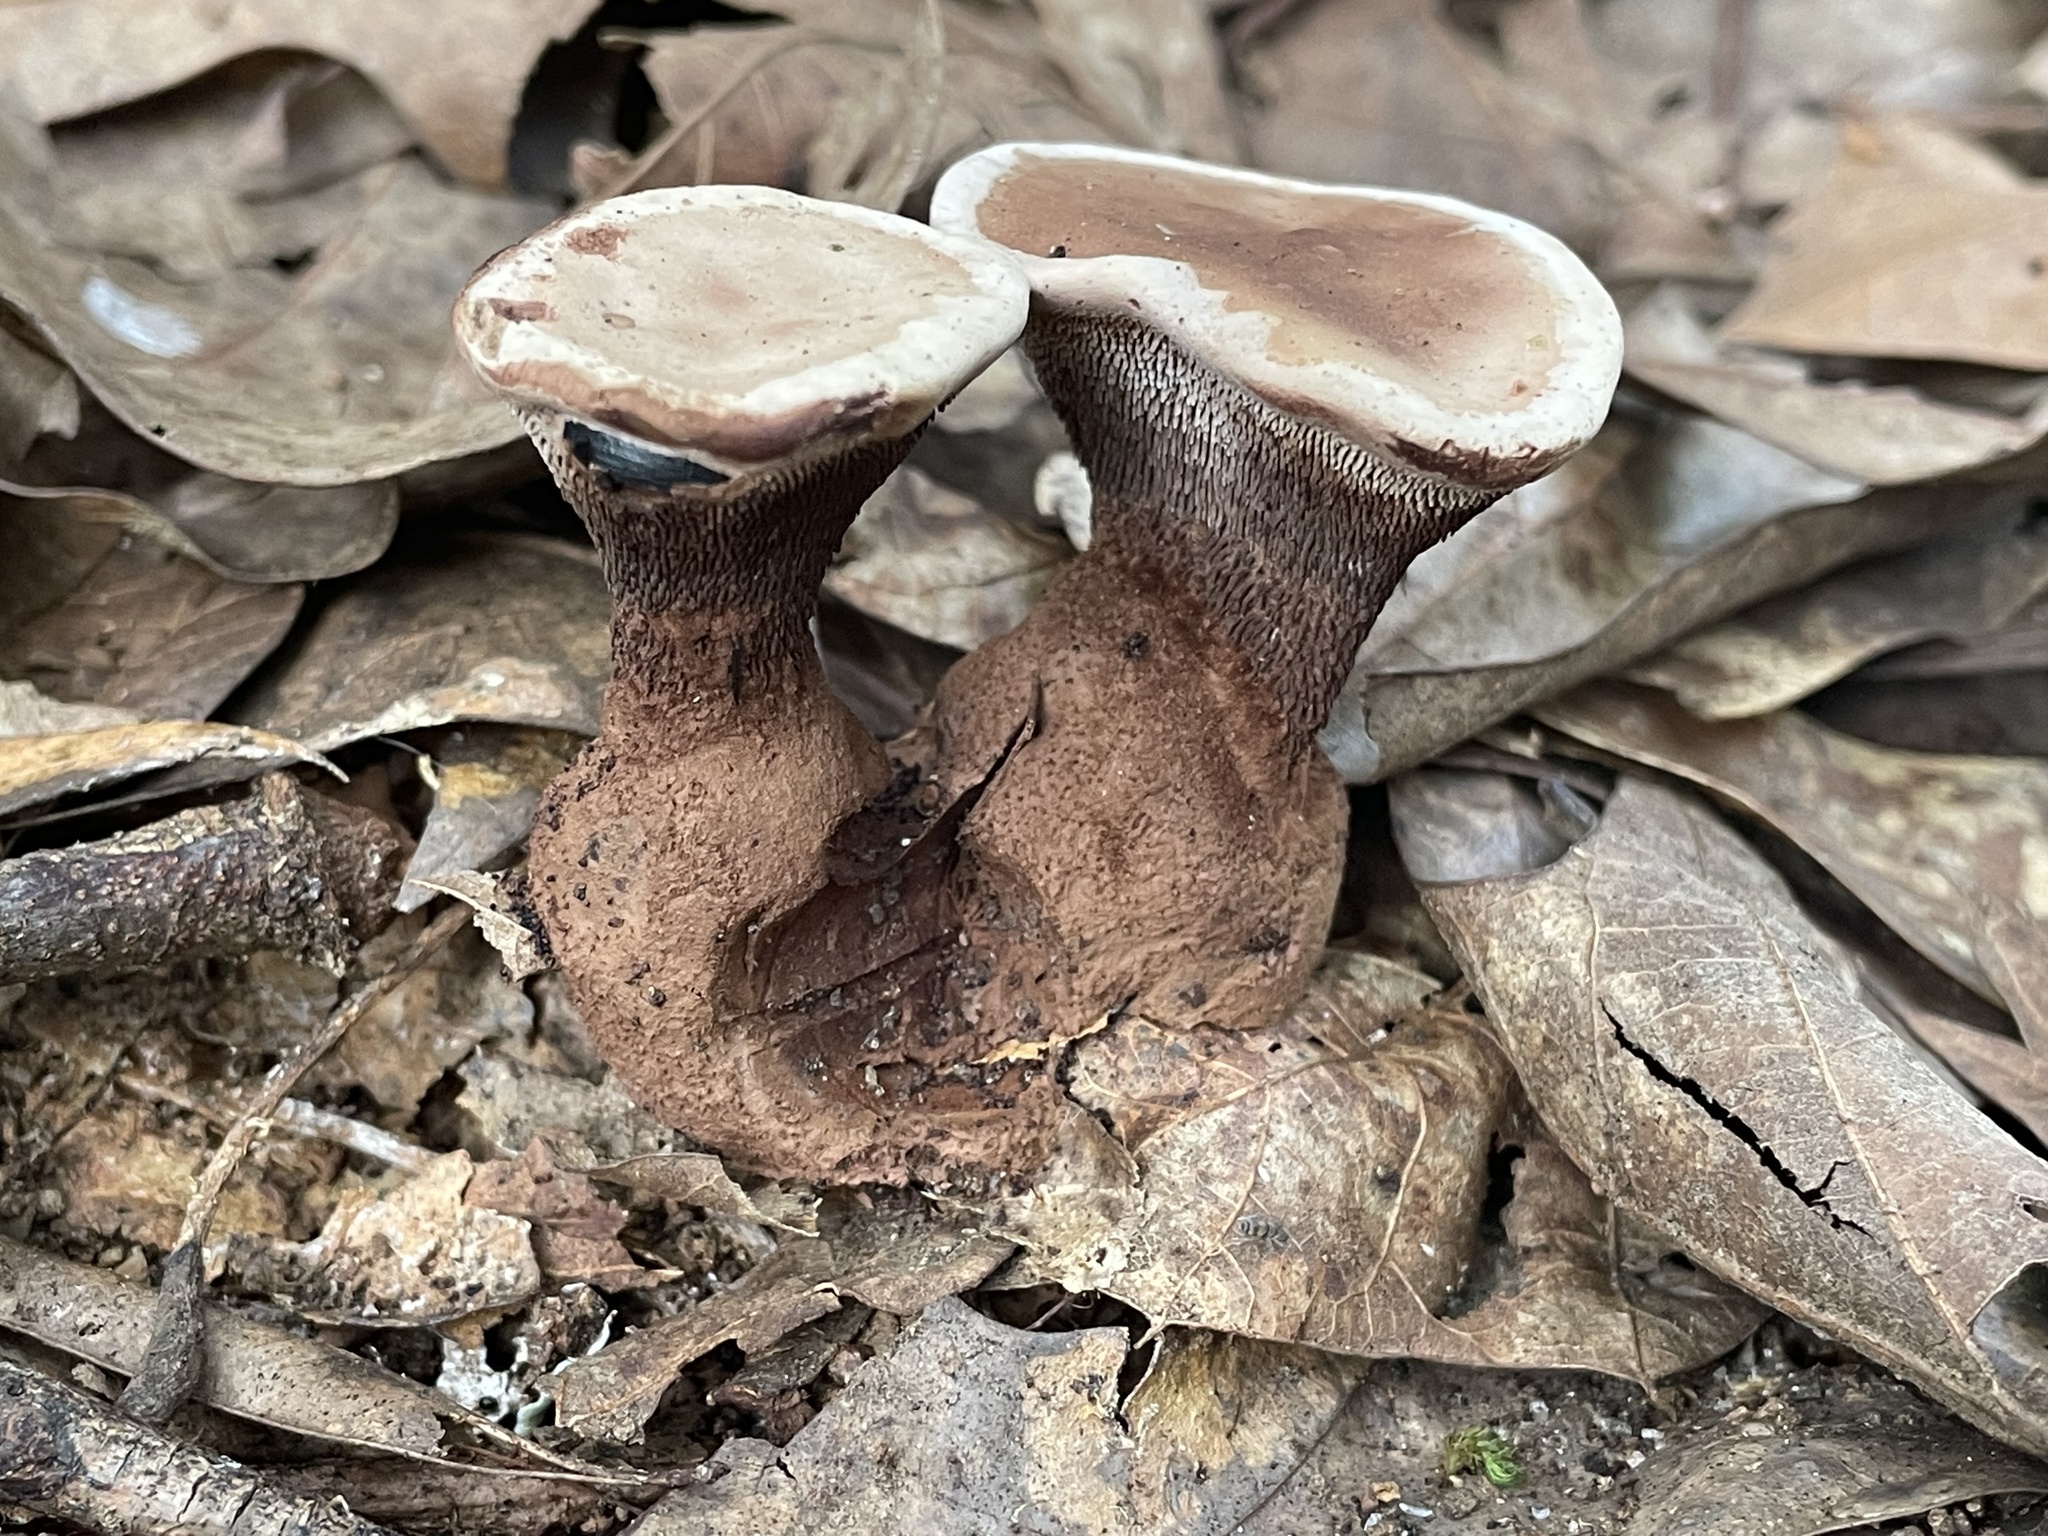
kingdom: Fungi
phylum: Basidiomycota
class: Agaricomycetes
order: Thelephorales
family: Bankeraceae
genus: Hydnellum
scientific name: Hydnellum spongiosipes
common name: Velvet tooth
